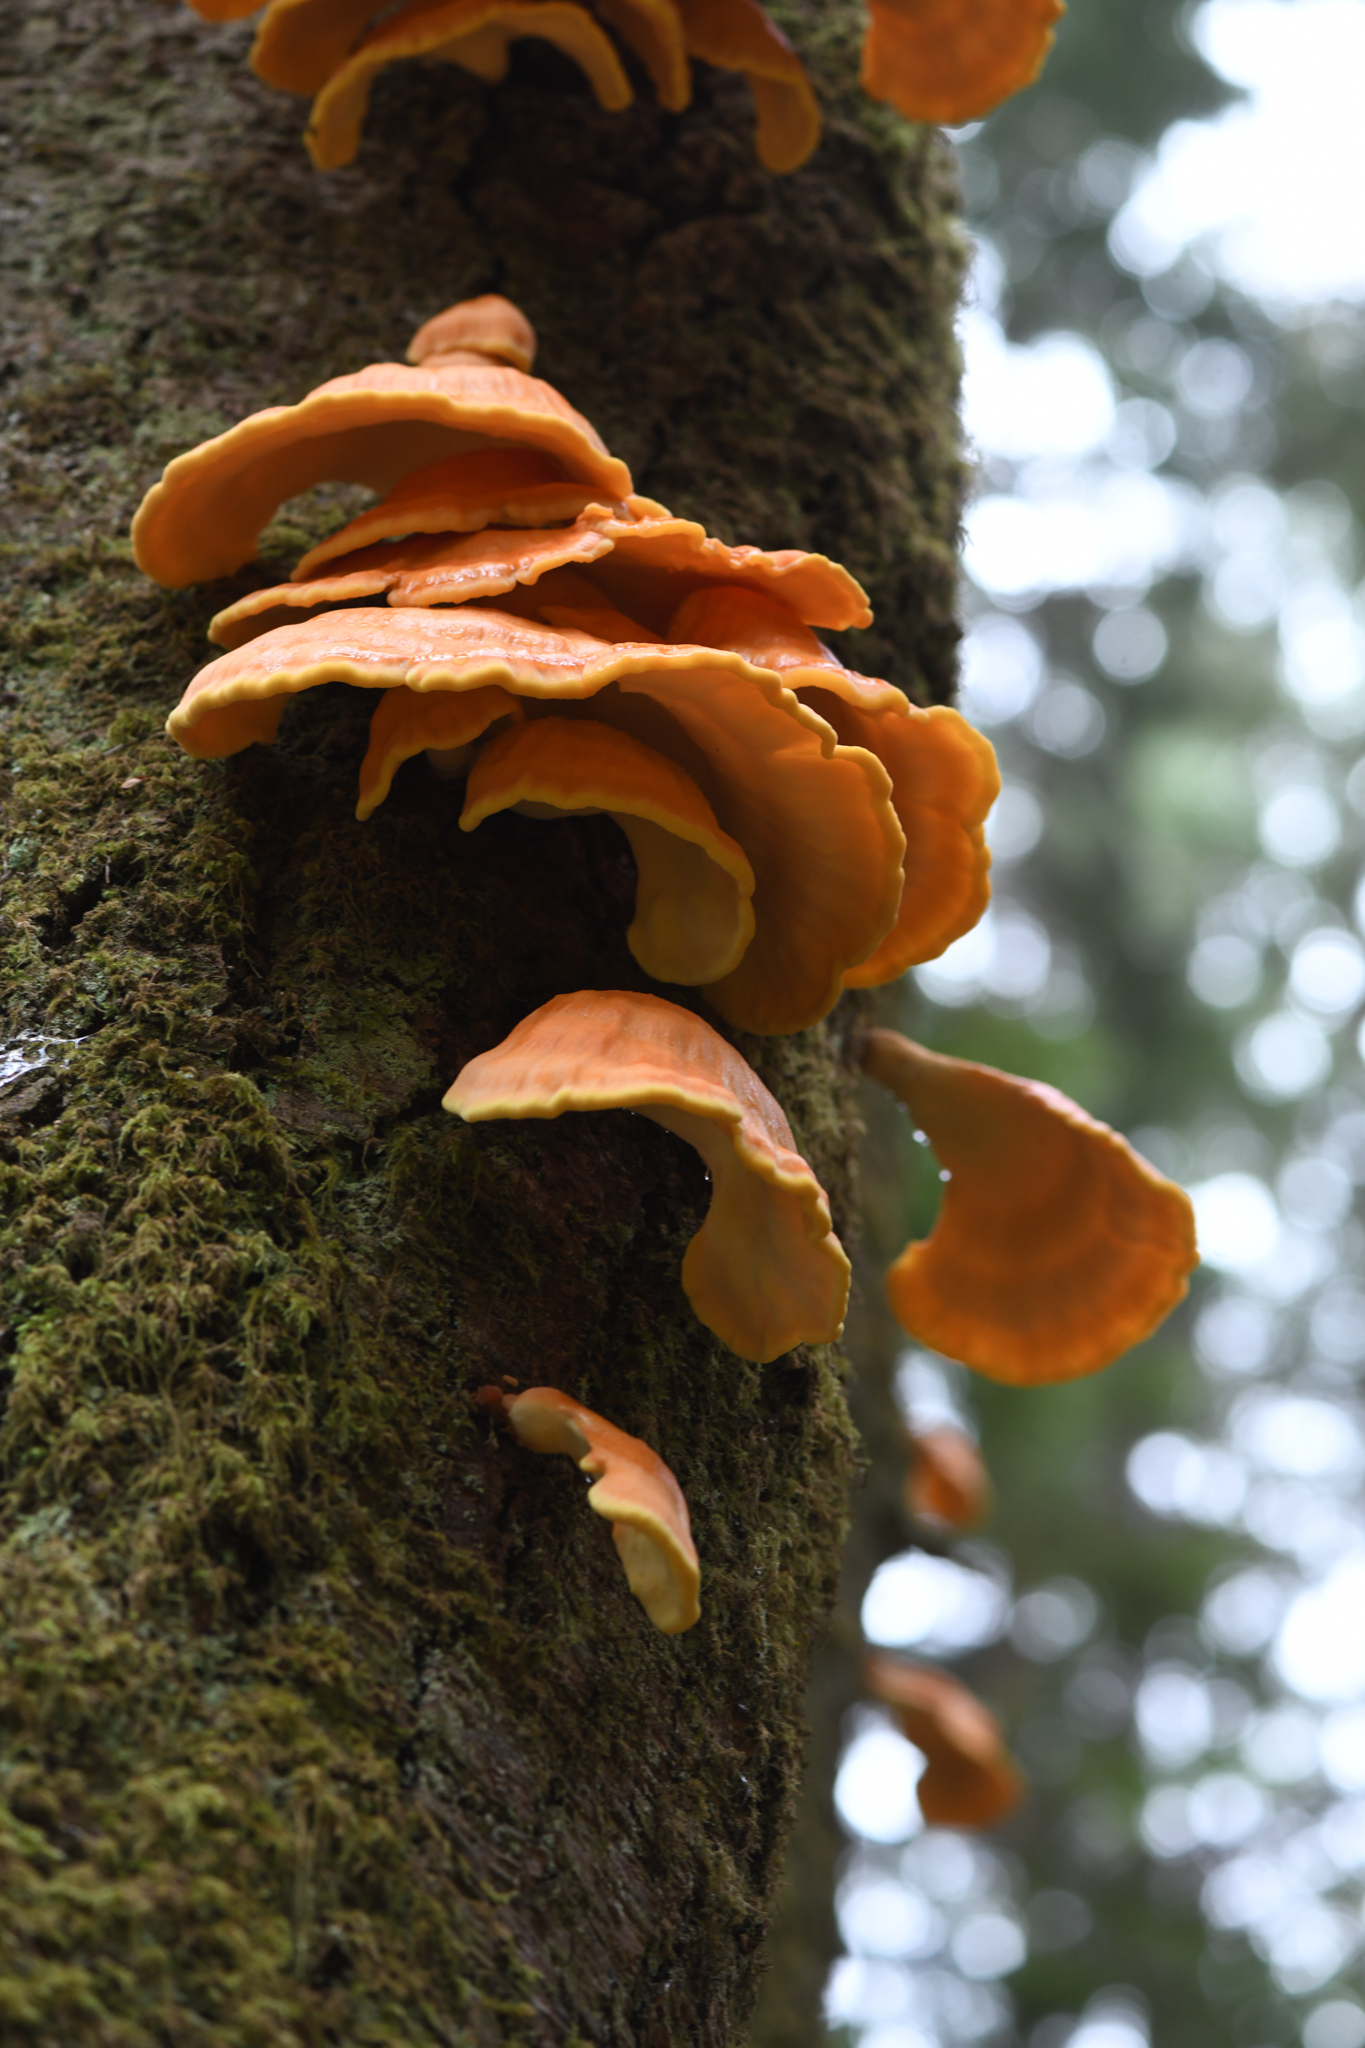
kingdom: Fungi
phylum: Basidiomycota
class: Agaricomycetes
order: Polyporales
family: Laetiporaceae
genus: Laetiporus
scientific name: Laetiporus conifericola
